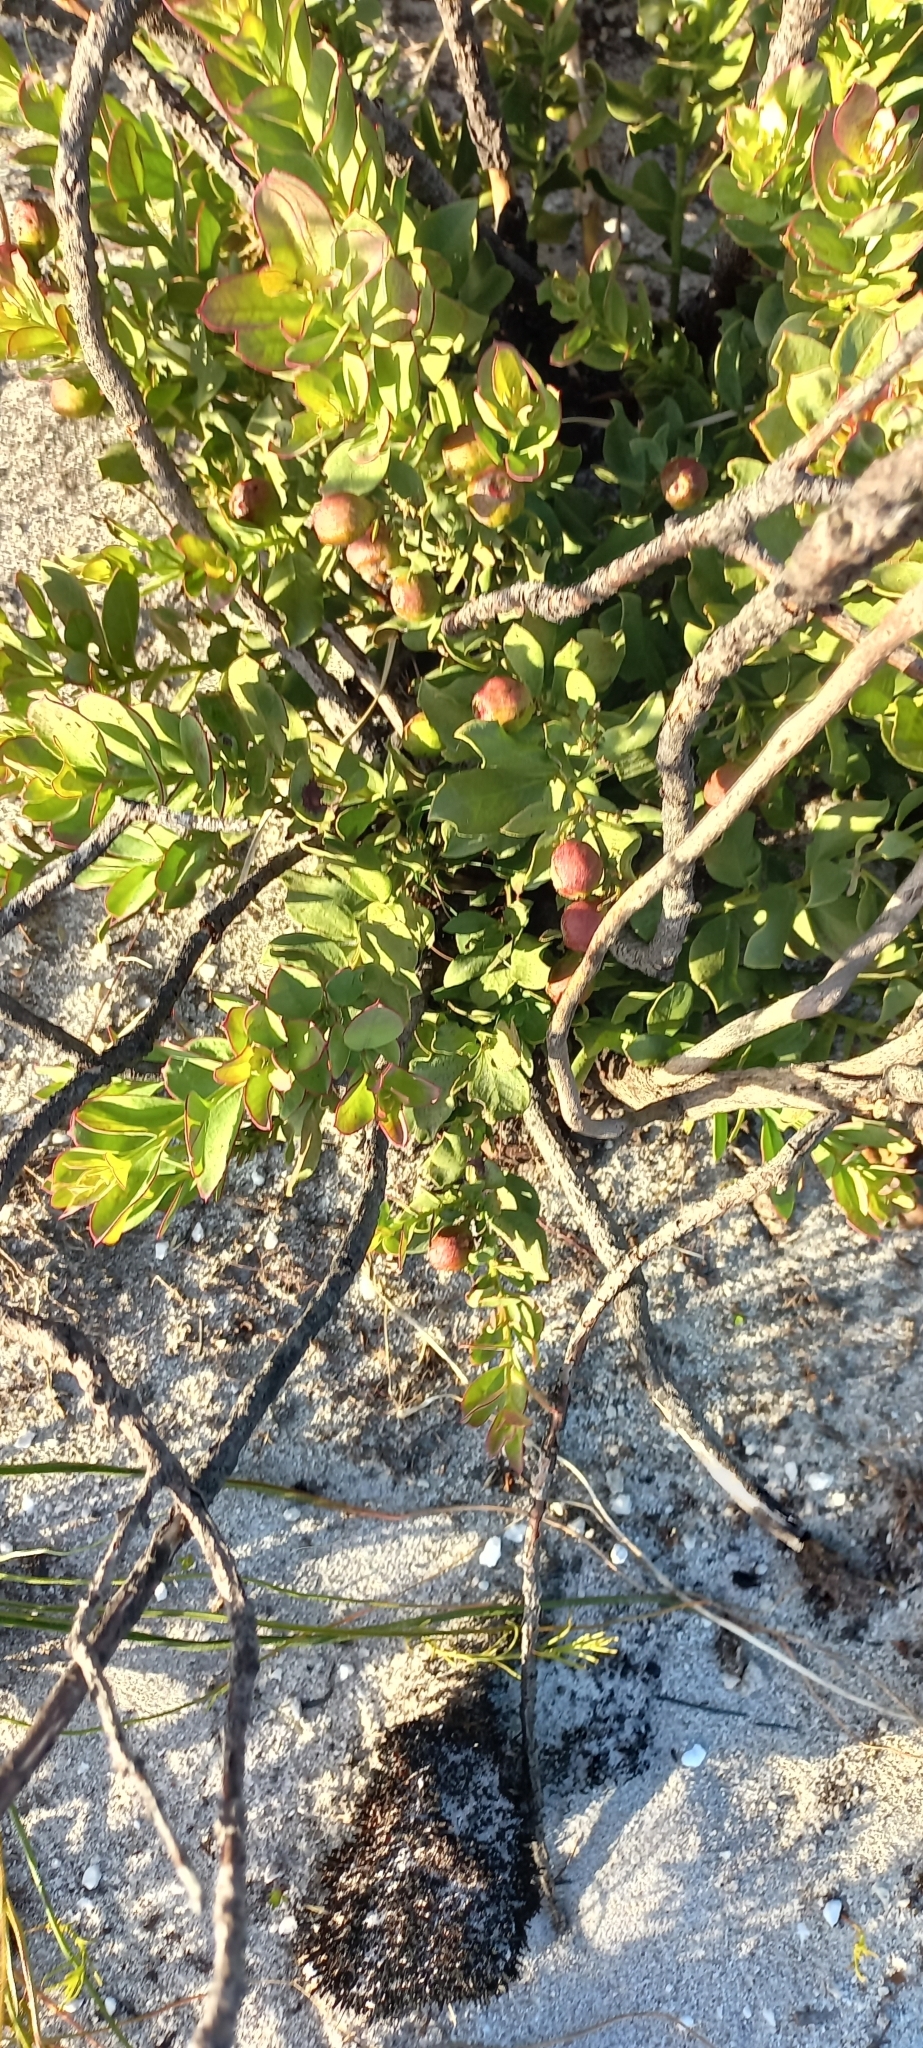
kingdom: Plantae
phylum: Tracheophyta
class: Magnoliopsida
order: Santalales
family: Santalaceae
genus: Osyris
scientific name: Osyris speciosa
